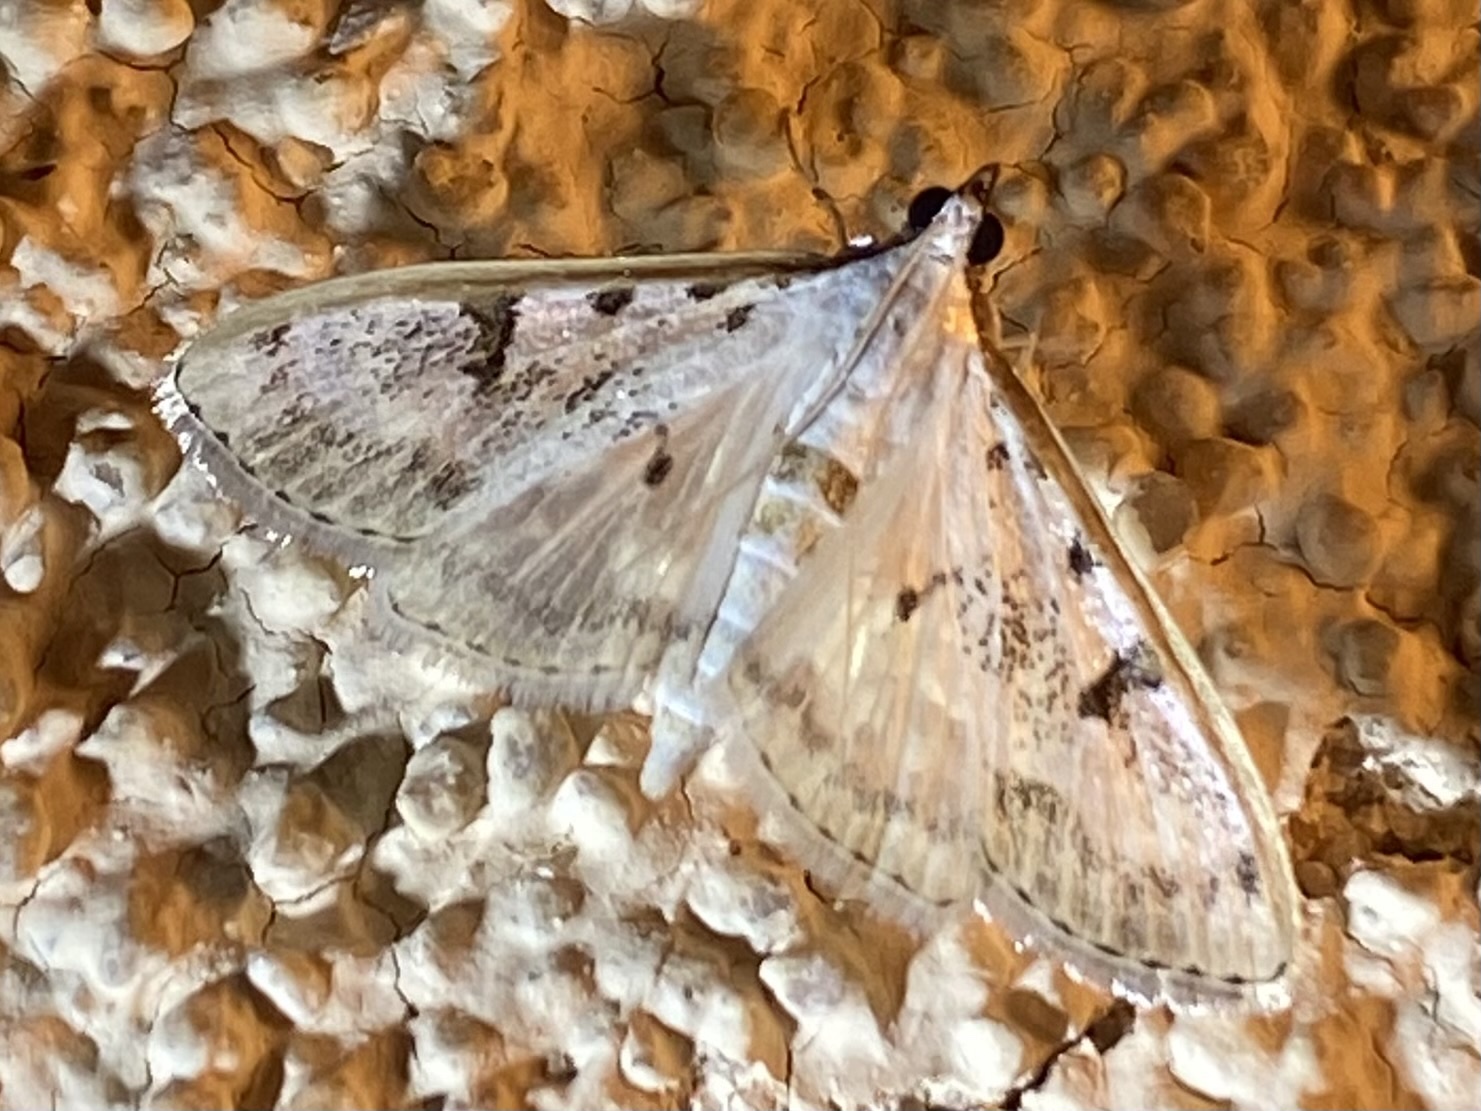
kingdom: Animalia
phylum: Arthropoda
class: Insecta
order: Lepidoptera
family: Crambidae
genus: Palpita
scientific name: Palpita gracilalis
